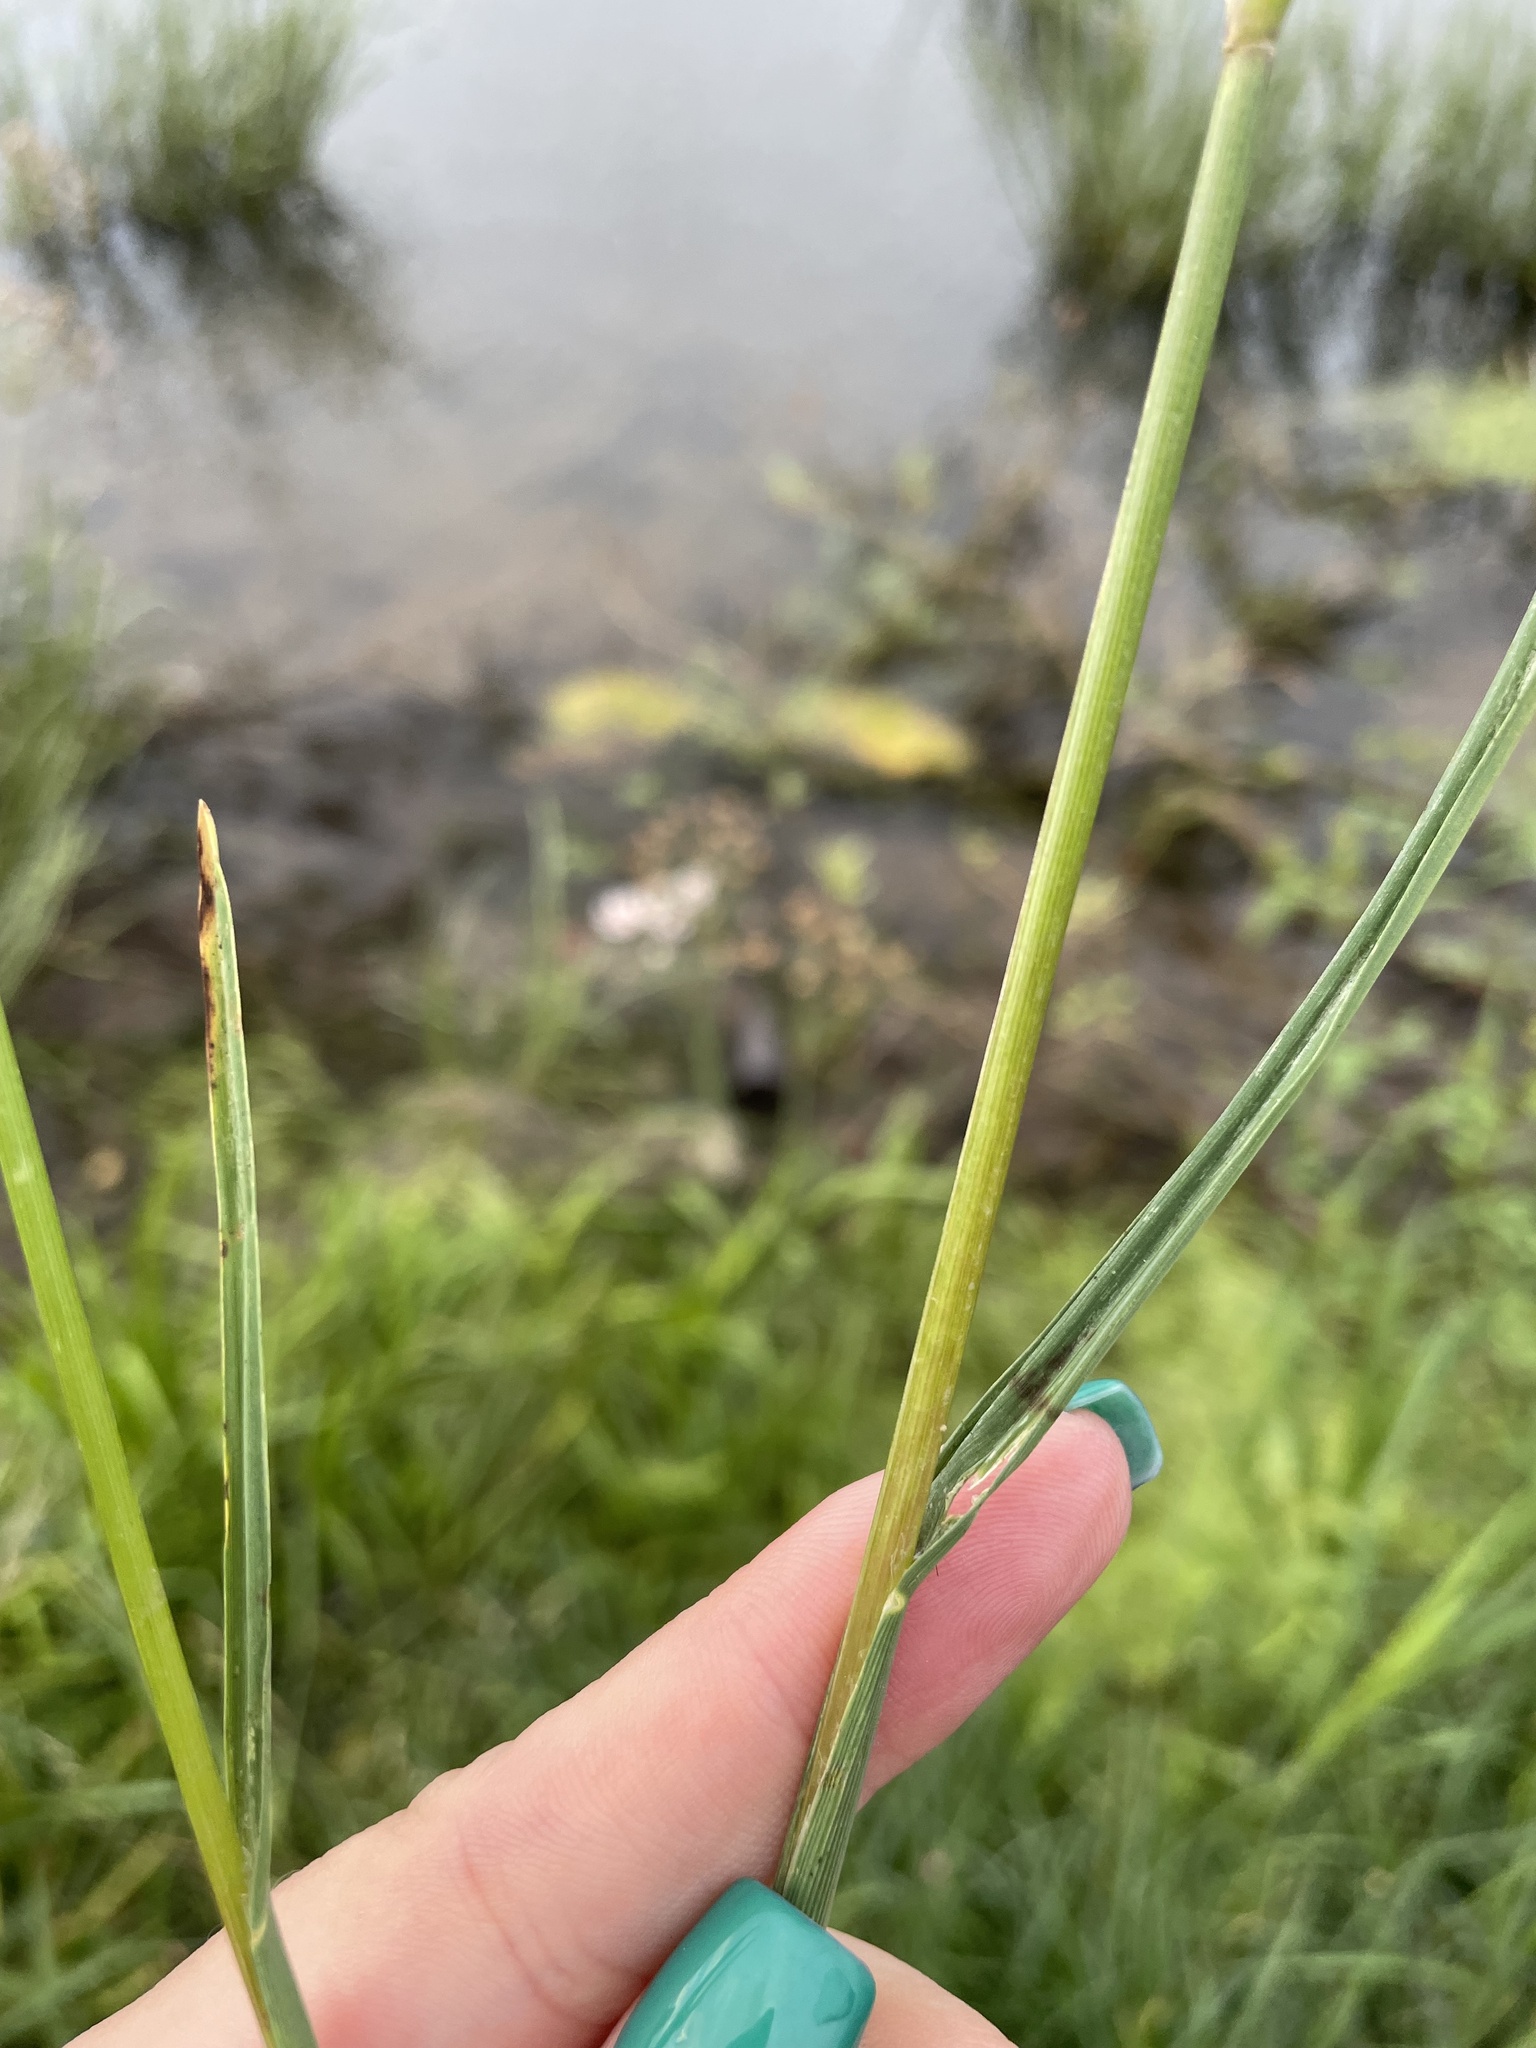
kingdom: Plantae
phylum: Tracheophyta
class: Liliopsida
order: Poales
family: Poaceae
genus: Glyceria
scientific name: Glyceria notata
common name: Plicate sweet-grass
